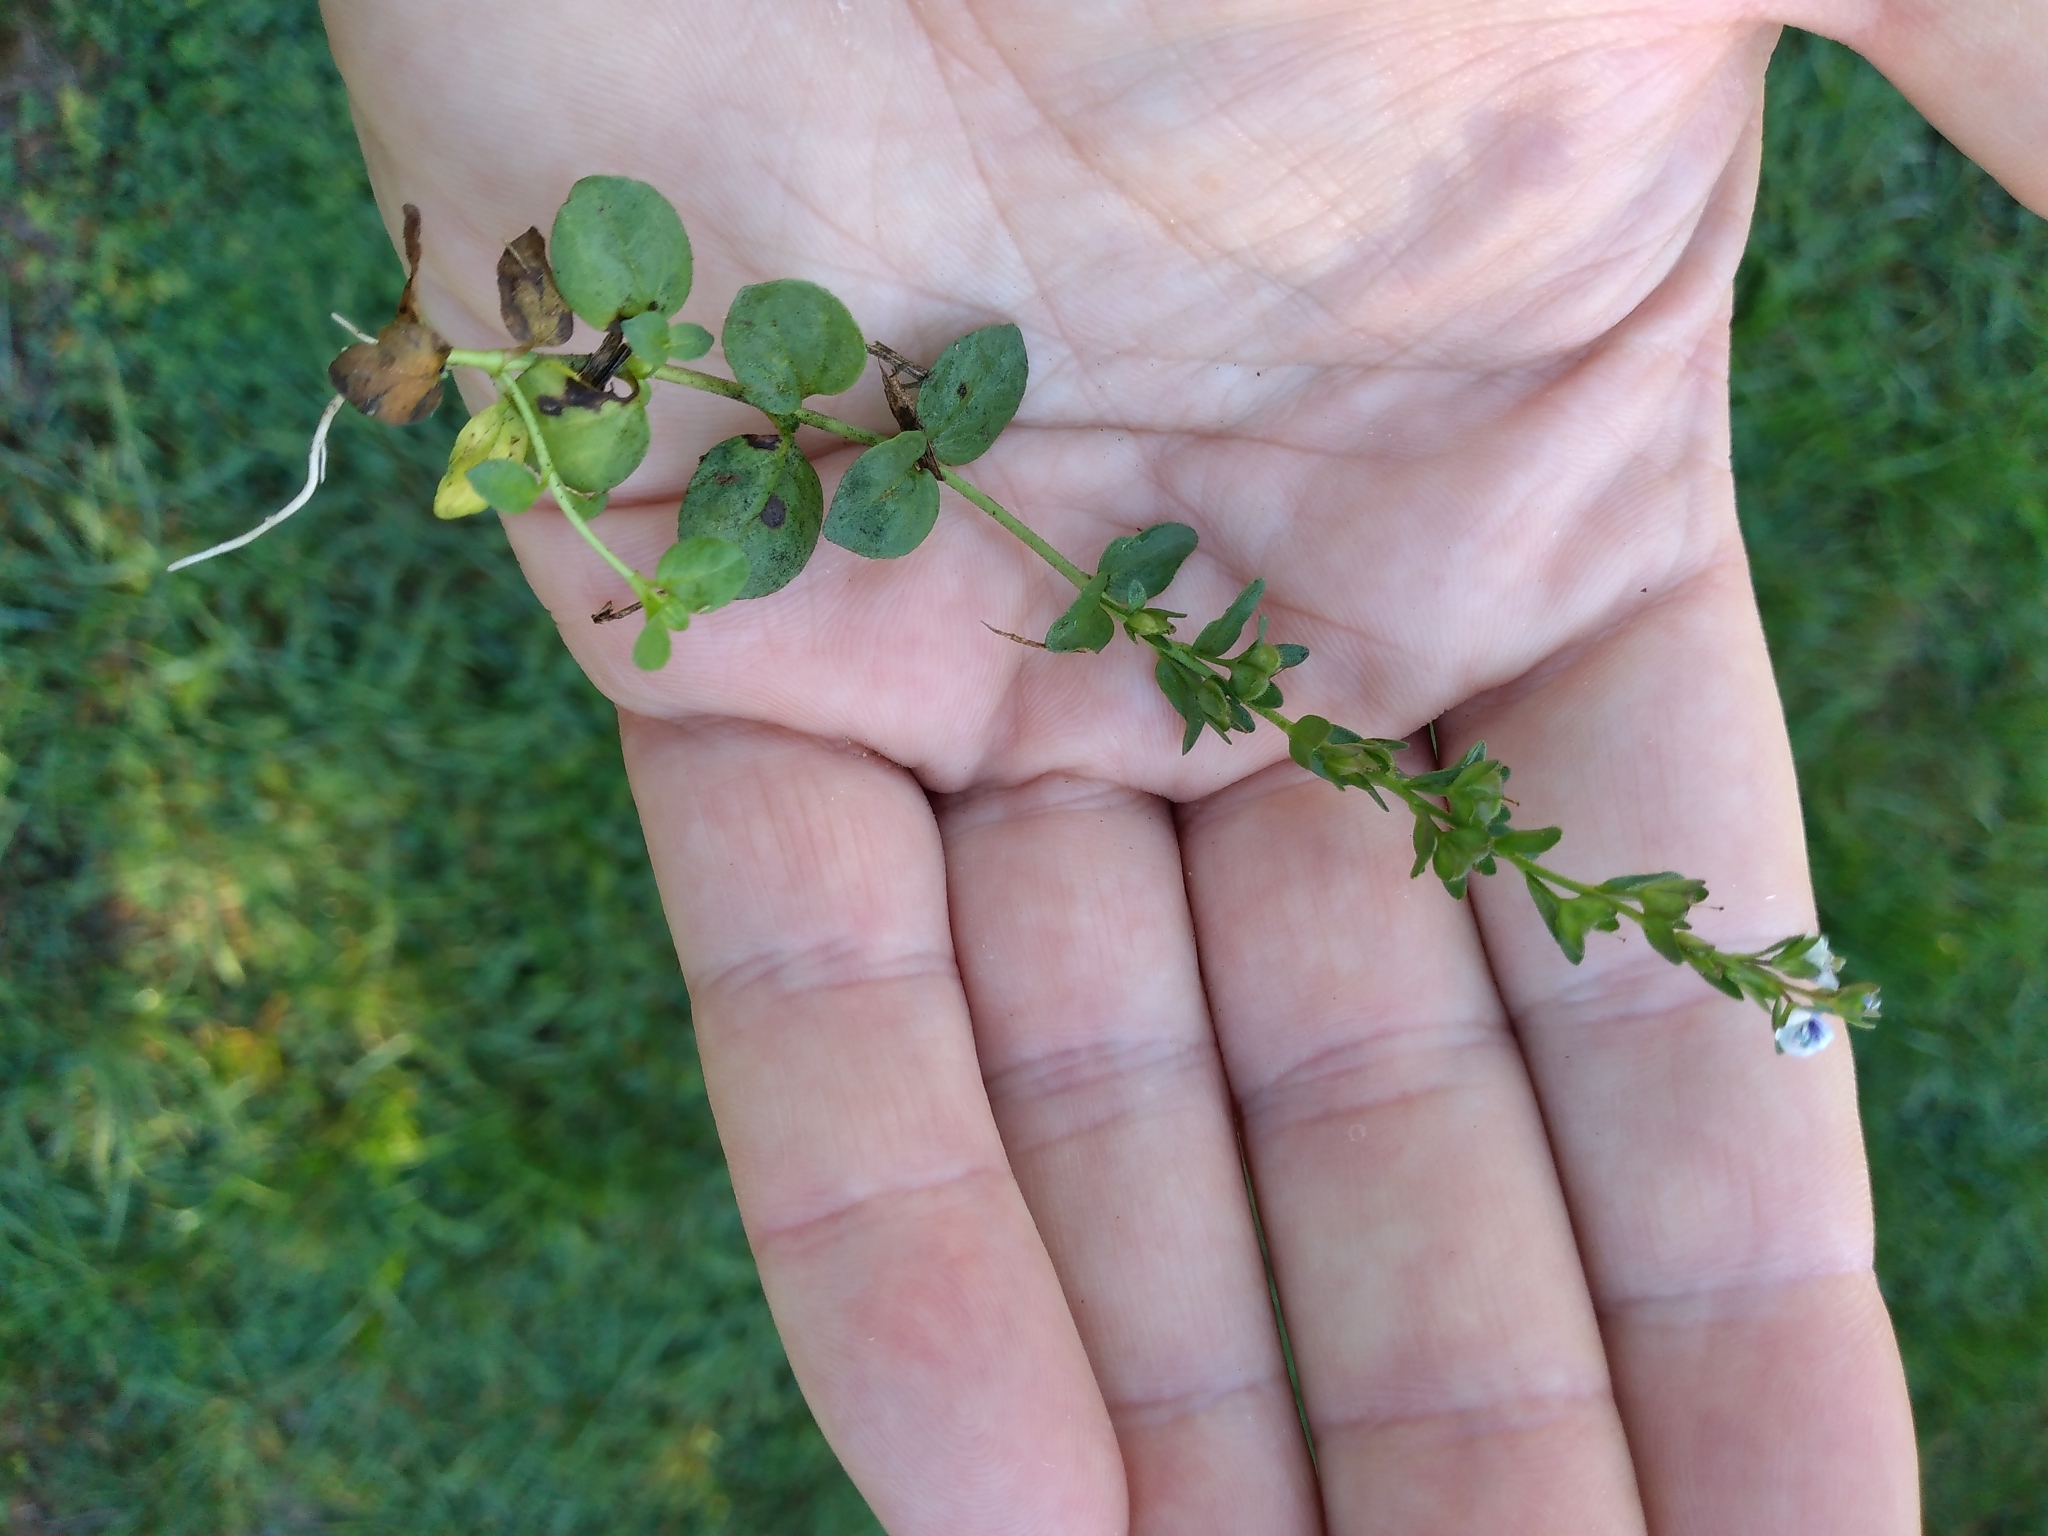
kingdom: Plantae
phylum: Tracheophyta
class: Magnoliopsida
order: Lamiales
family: Plantaginaceae
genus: Veronica
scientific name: Veronica serpyllifolia
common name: Thyme-leaved speedwell
